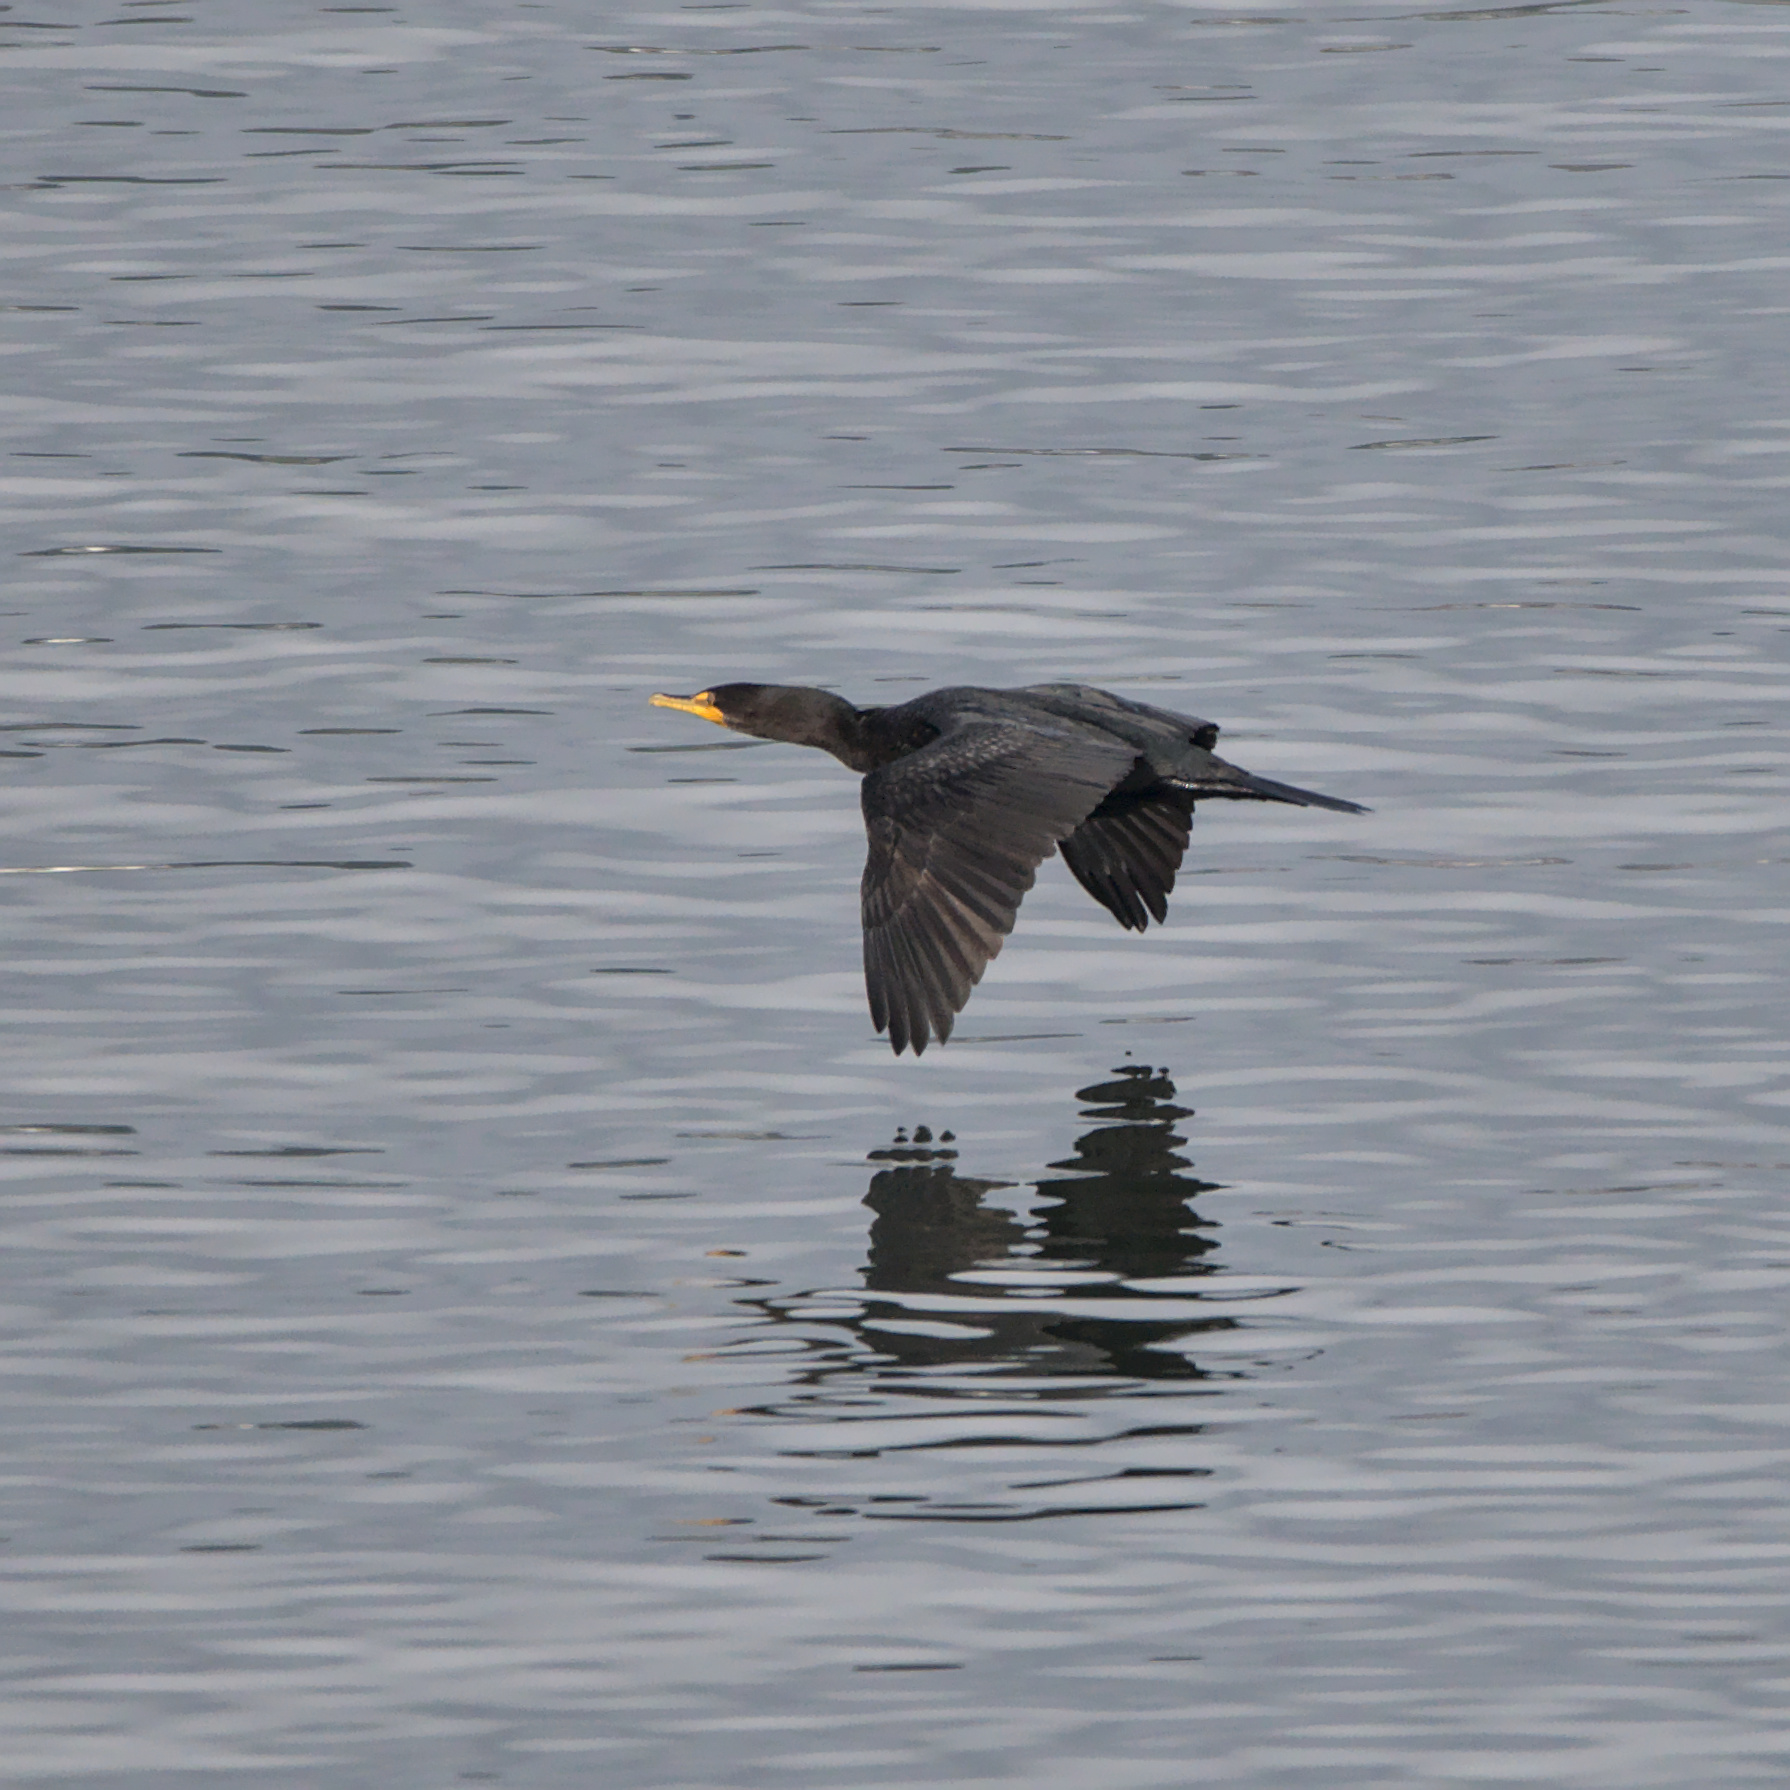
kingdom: Animalia
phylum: Chordata
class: Aves
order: Suliformes
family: Phalacrocoracidae
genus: Phalacrocorax
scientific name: Phalacrocorax auritus
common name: Double-crested cormorant
